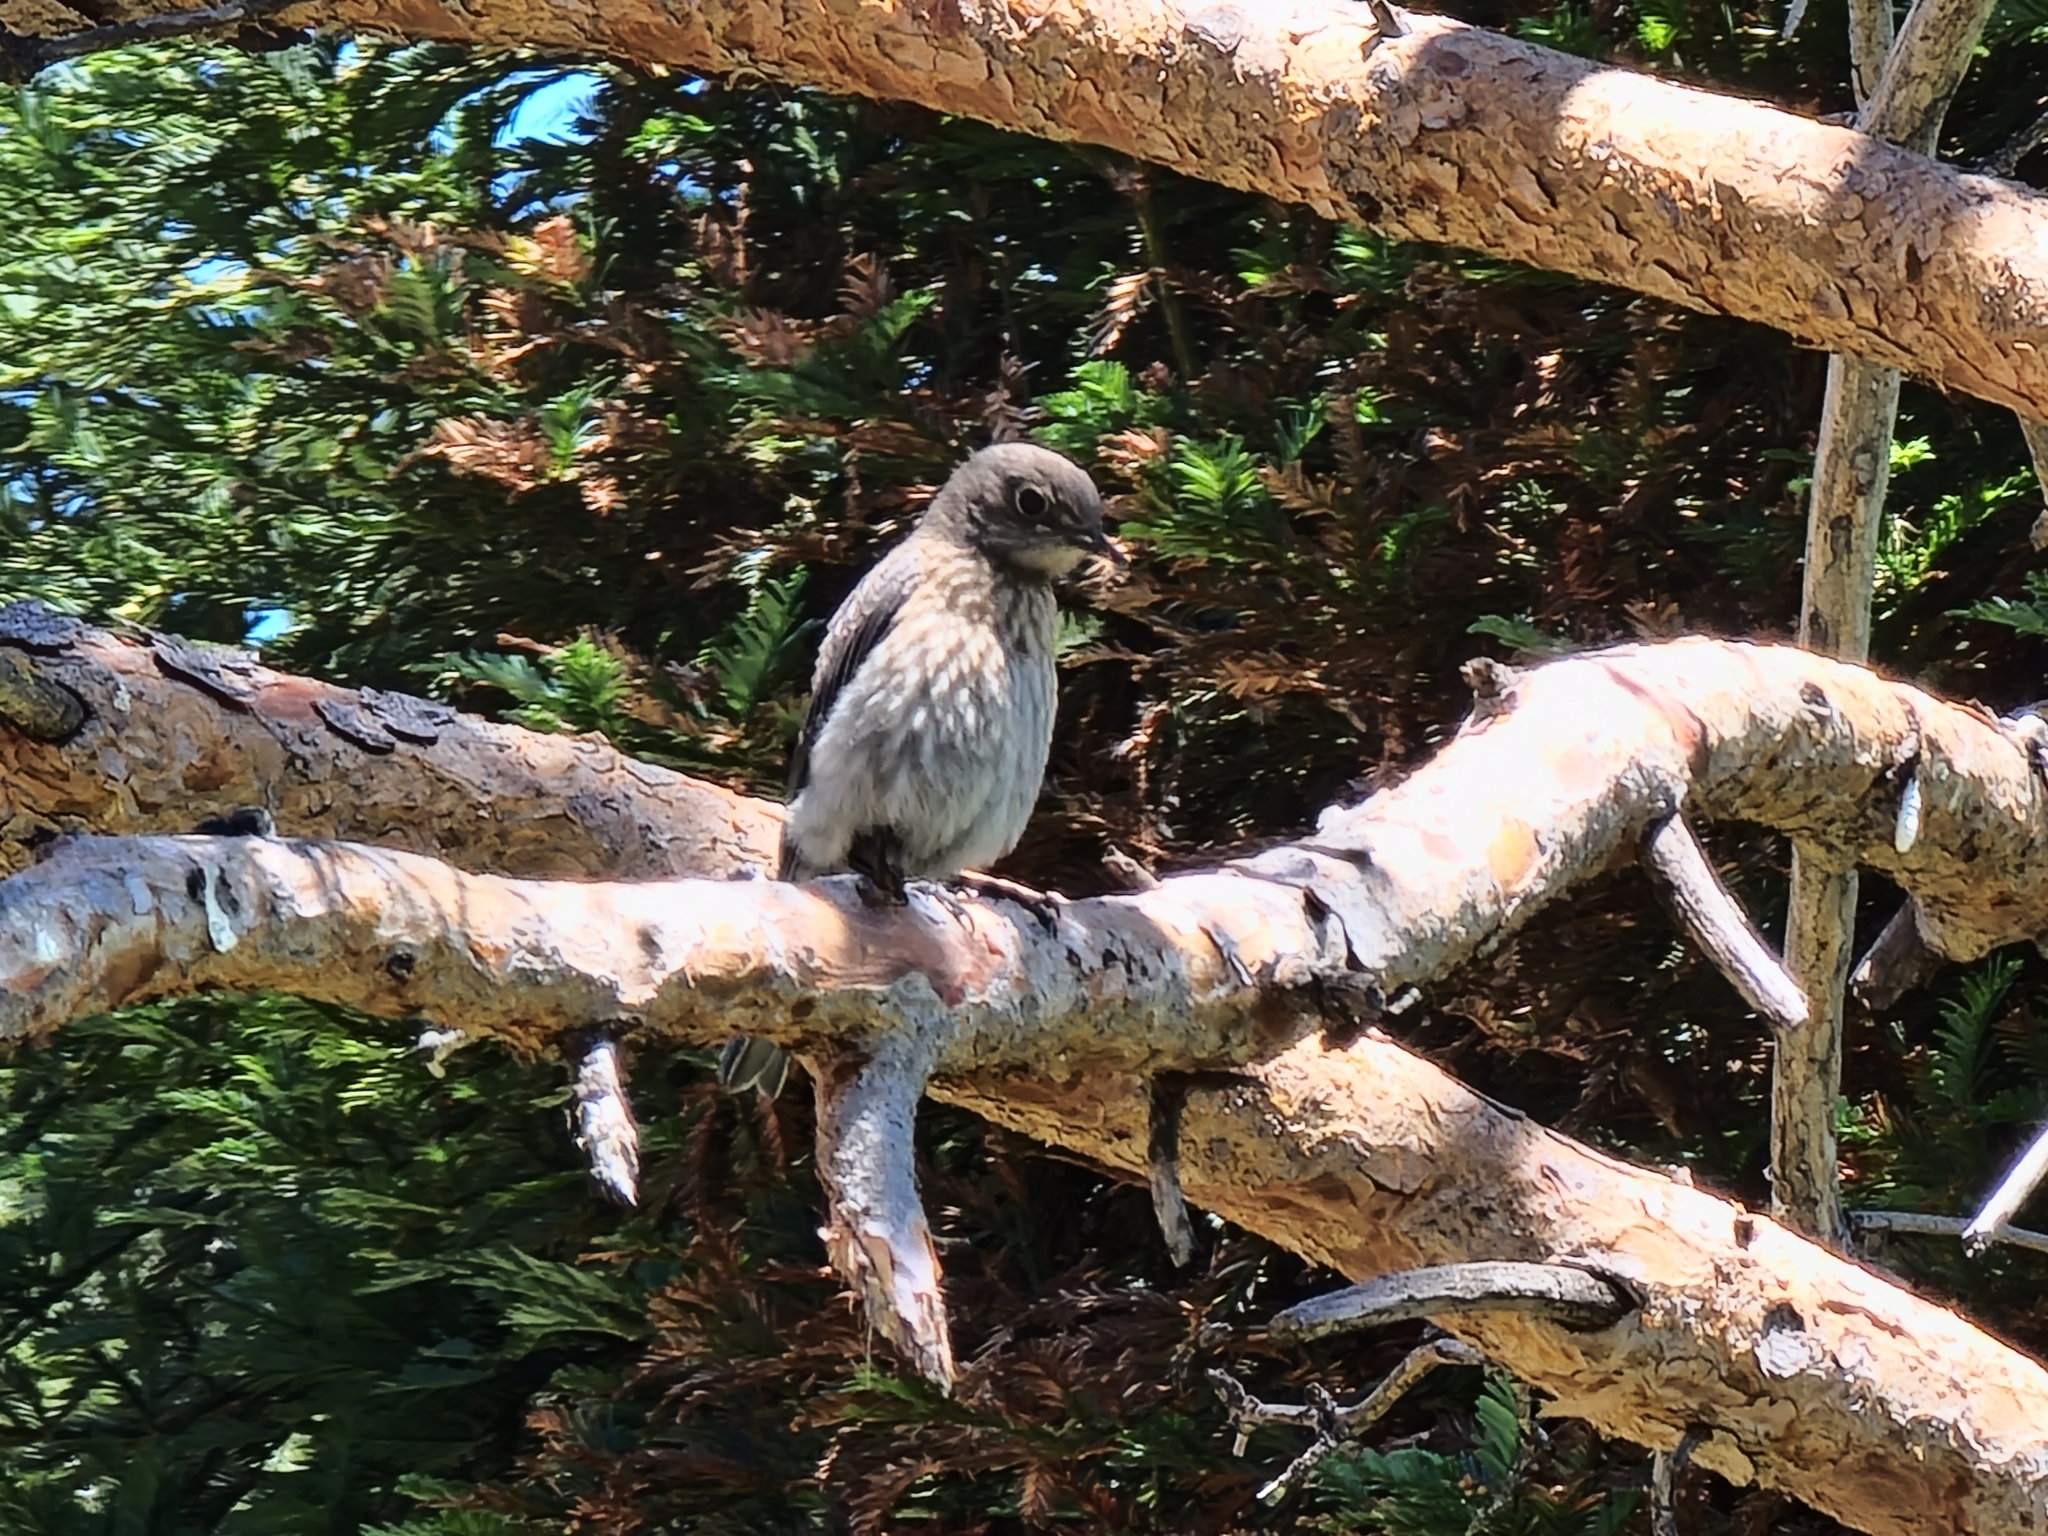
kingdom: Animalia
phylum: Chordata
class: Aves
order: Passeriformes
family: Turdidae
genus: Sialia
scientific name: Sialia mexicana
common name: Western bluebird
